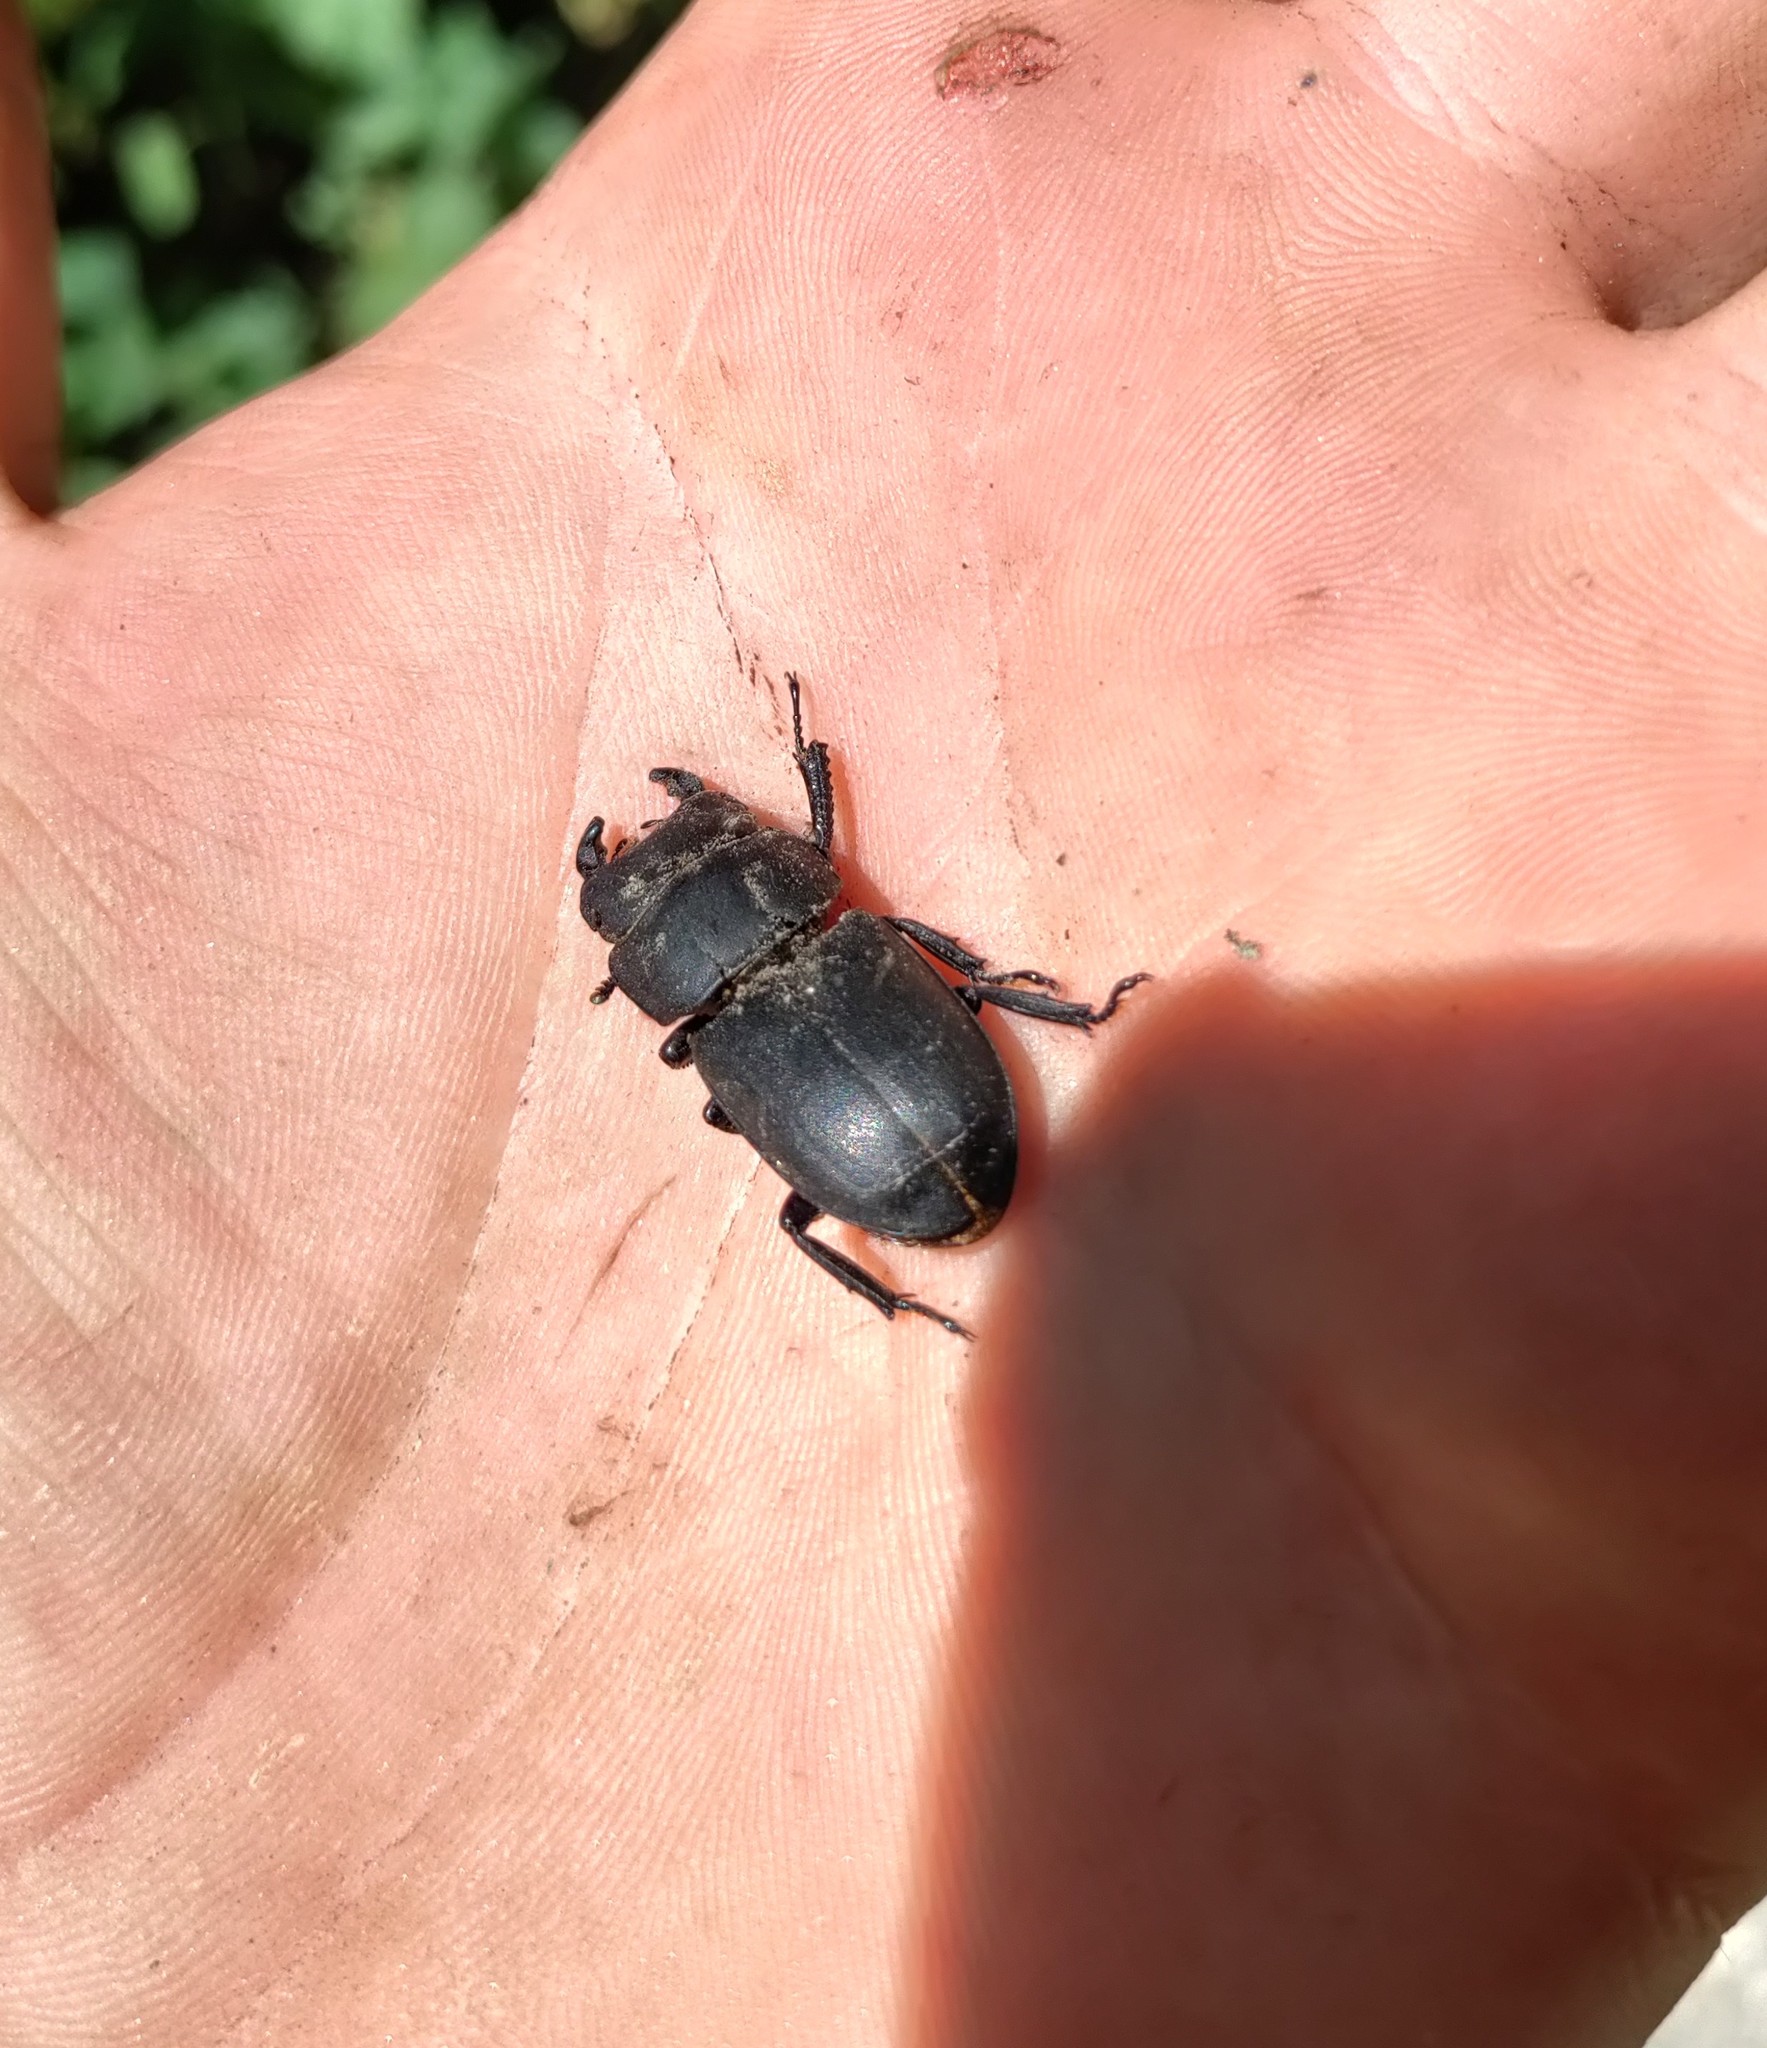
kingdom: Animalia
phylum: Arthropoda
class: Insecta
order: Coleoptera
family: Lucanidae
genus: Dorcus
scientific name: Dorcus parallelipipedus
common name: Lesser stag beetle
